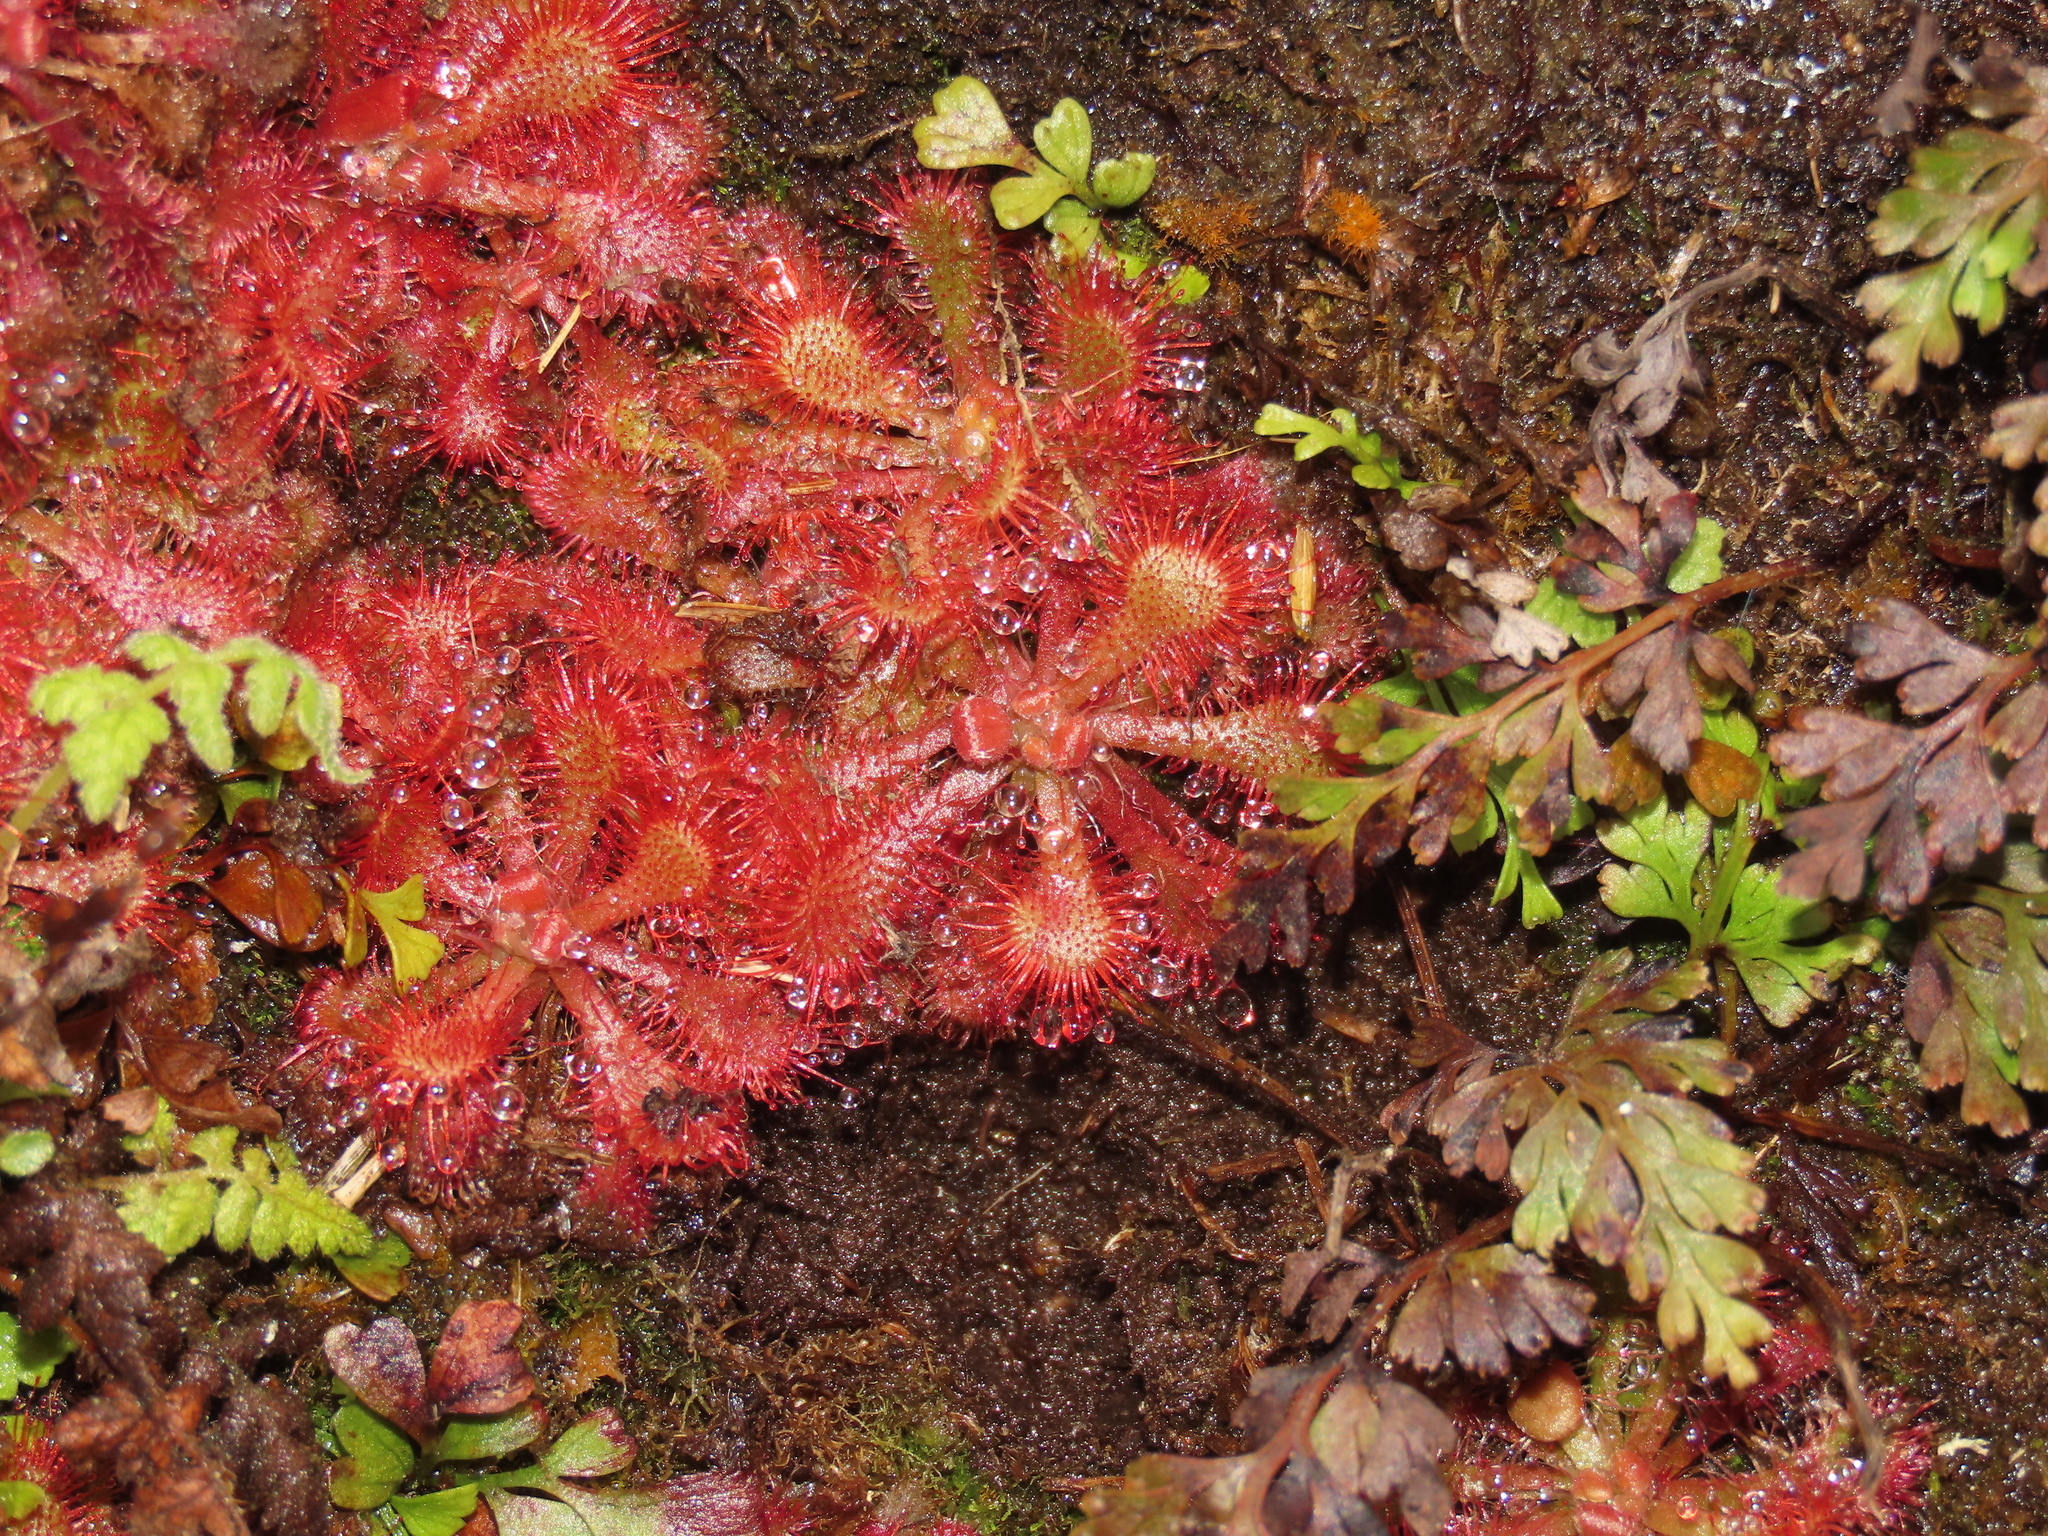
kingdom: Plantae
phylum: Tracheophyta
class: Magnoliopsida
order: Caryophyllales
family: Droseraceae
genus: Drosera
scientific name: Drosera spatulata
